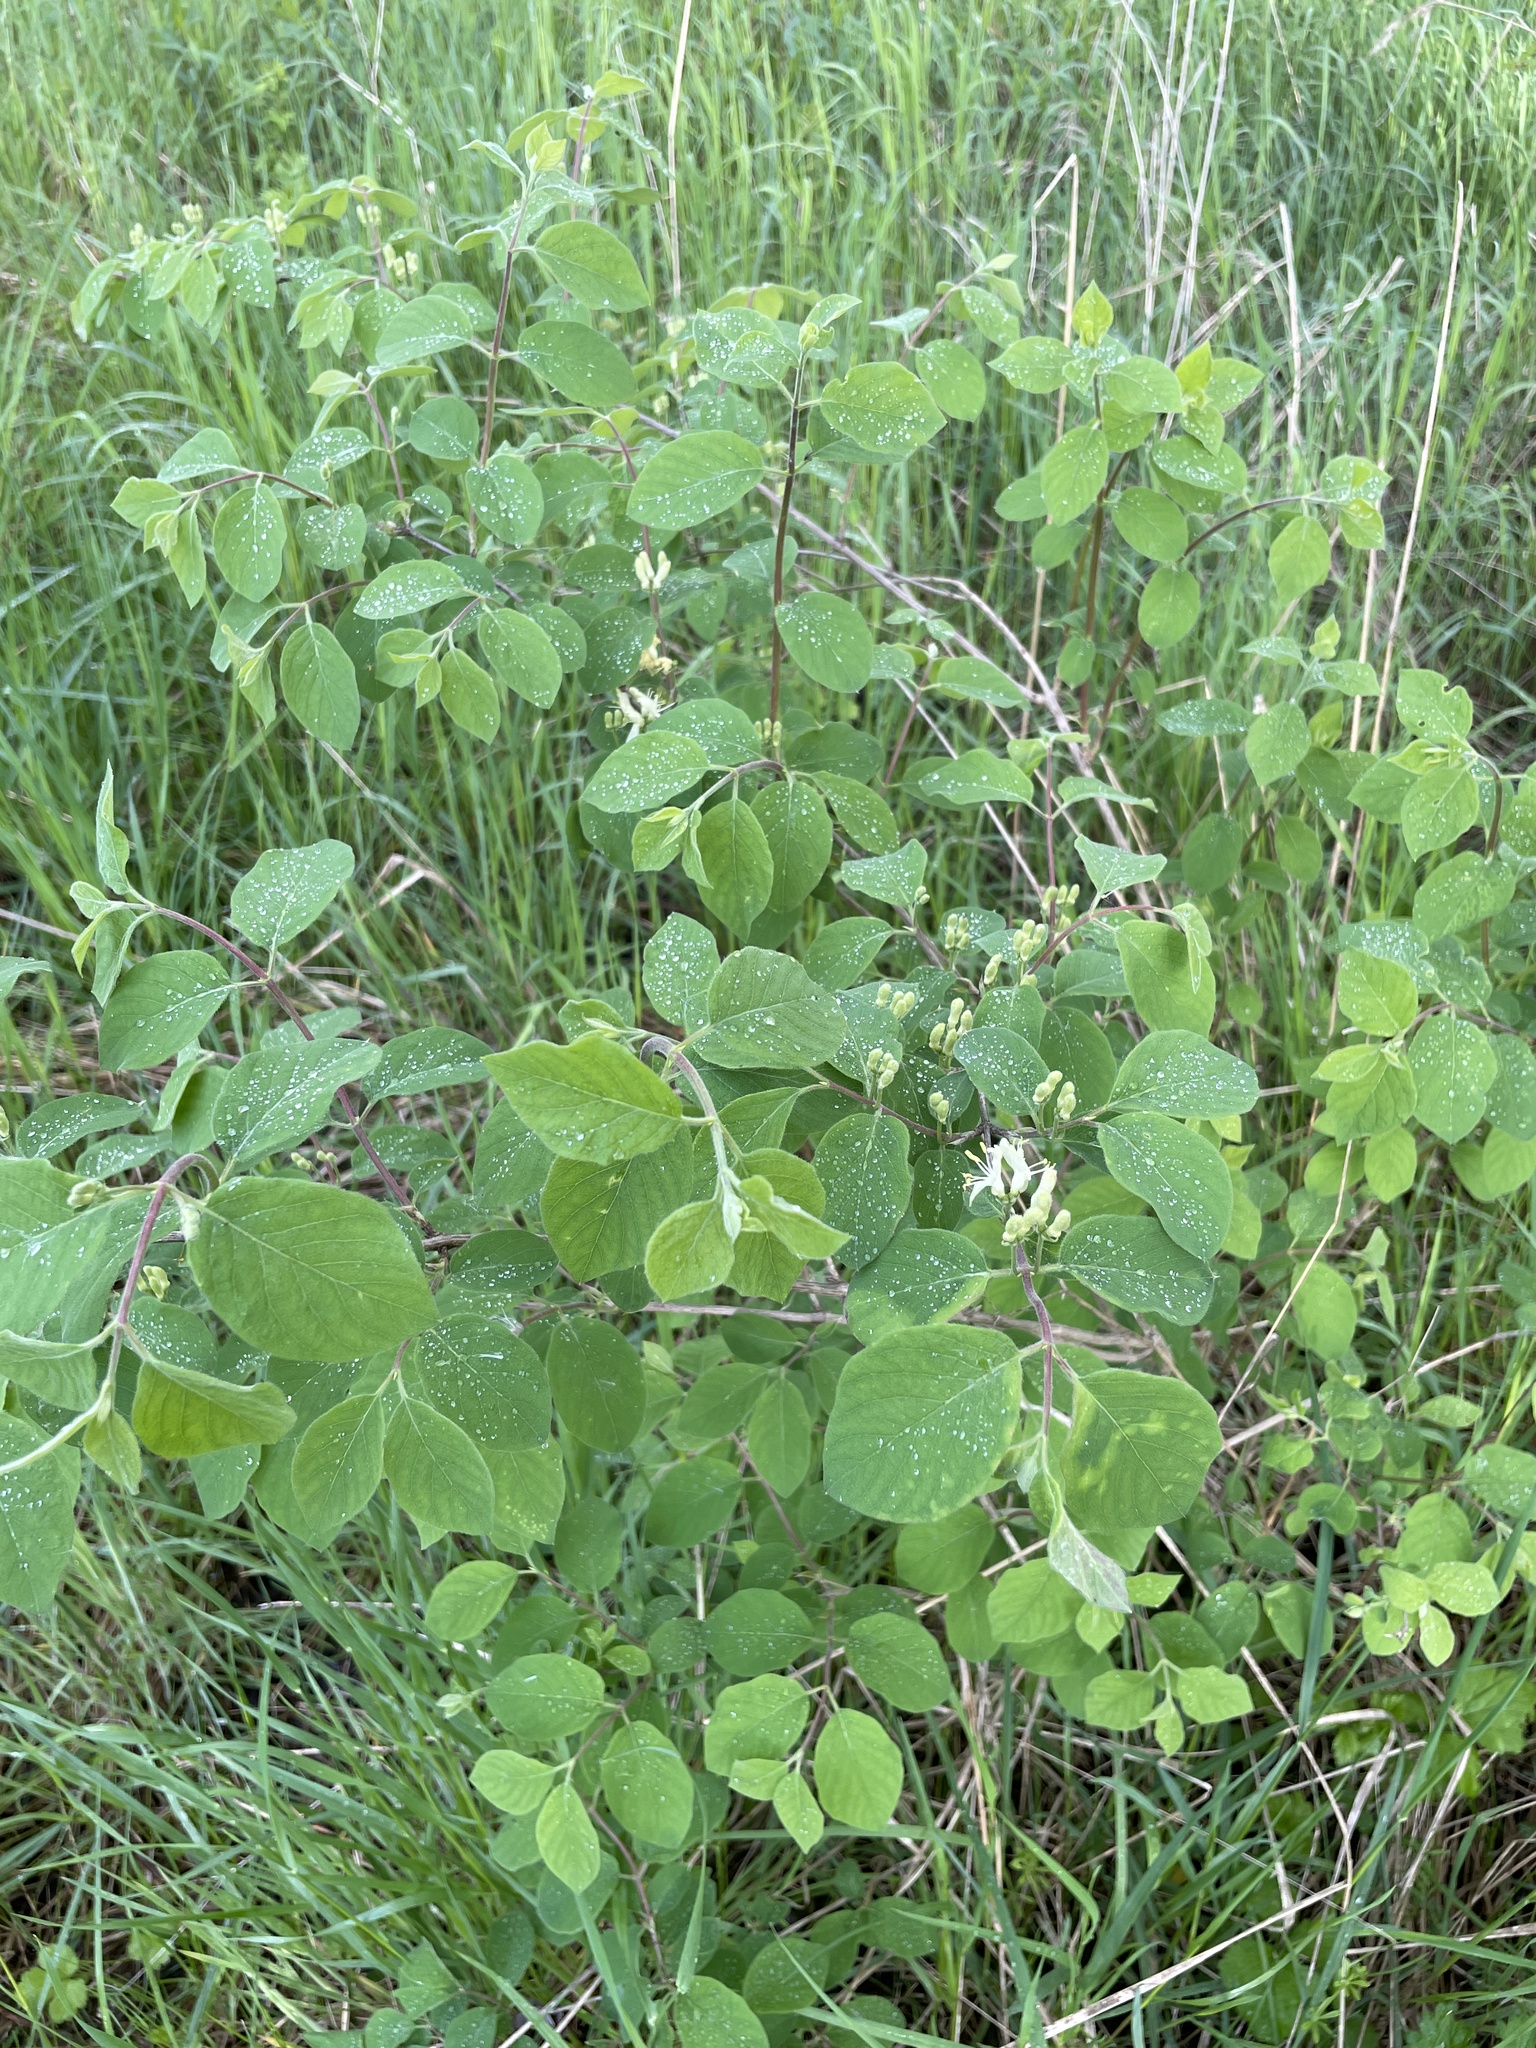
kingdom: Plantae
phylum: Tracheophyta
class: Magnoliopsida
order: Dipsacales
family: Caprifoliaceae
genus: Lonicera
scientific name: Lonicera xylosteum
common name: Fly honeysuckle
